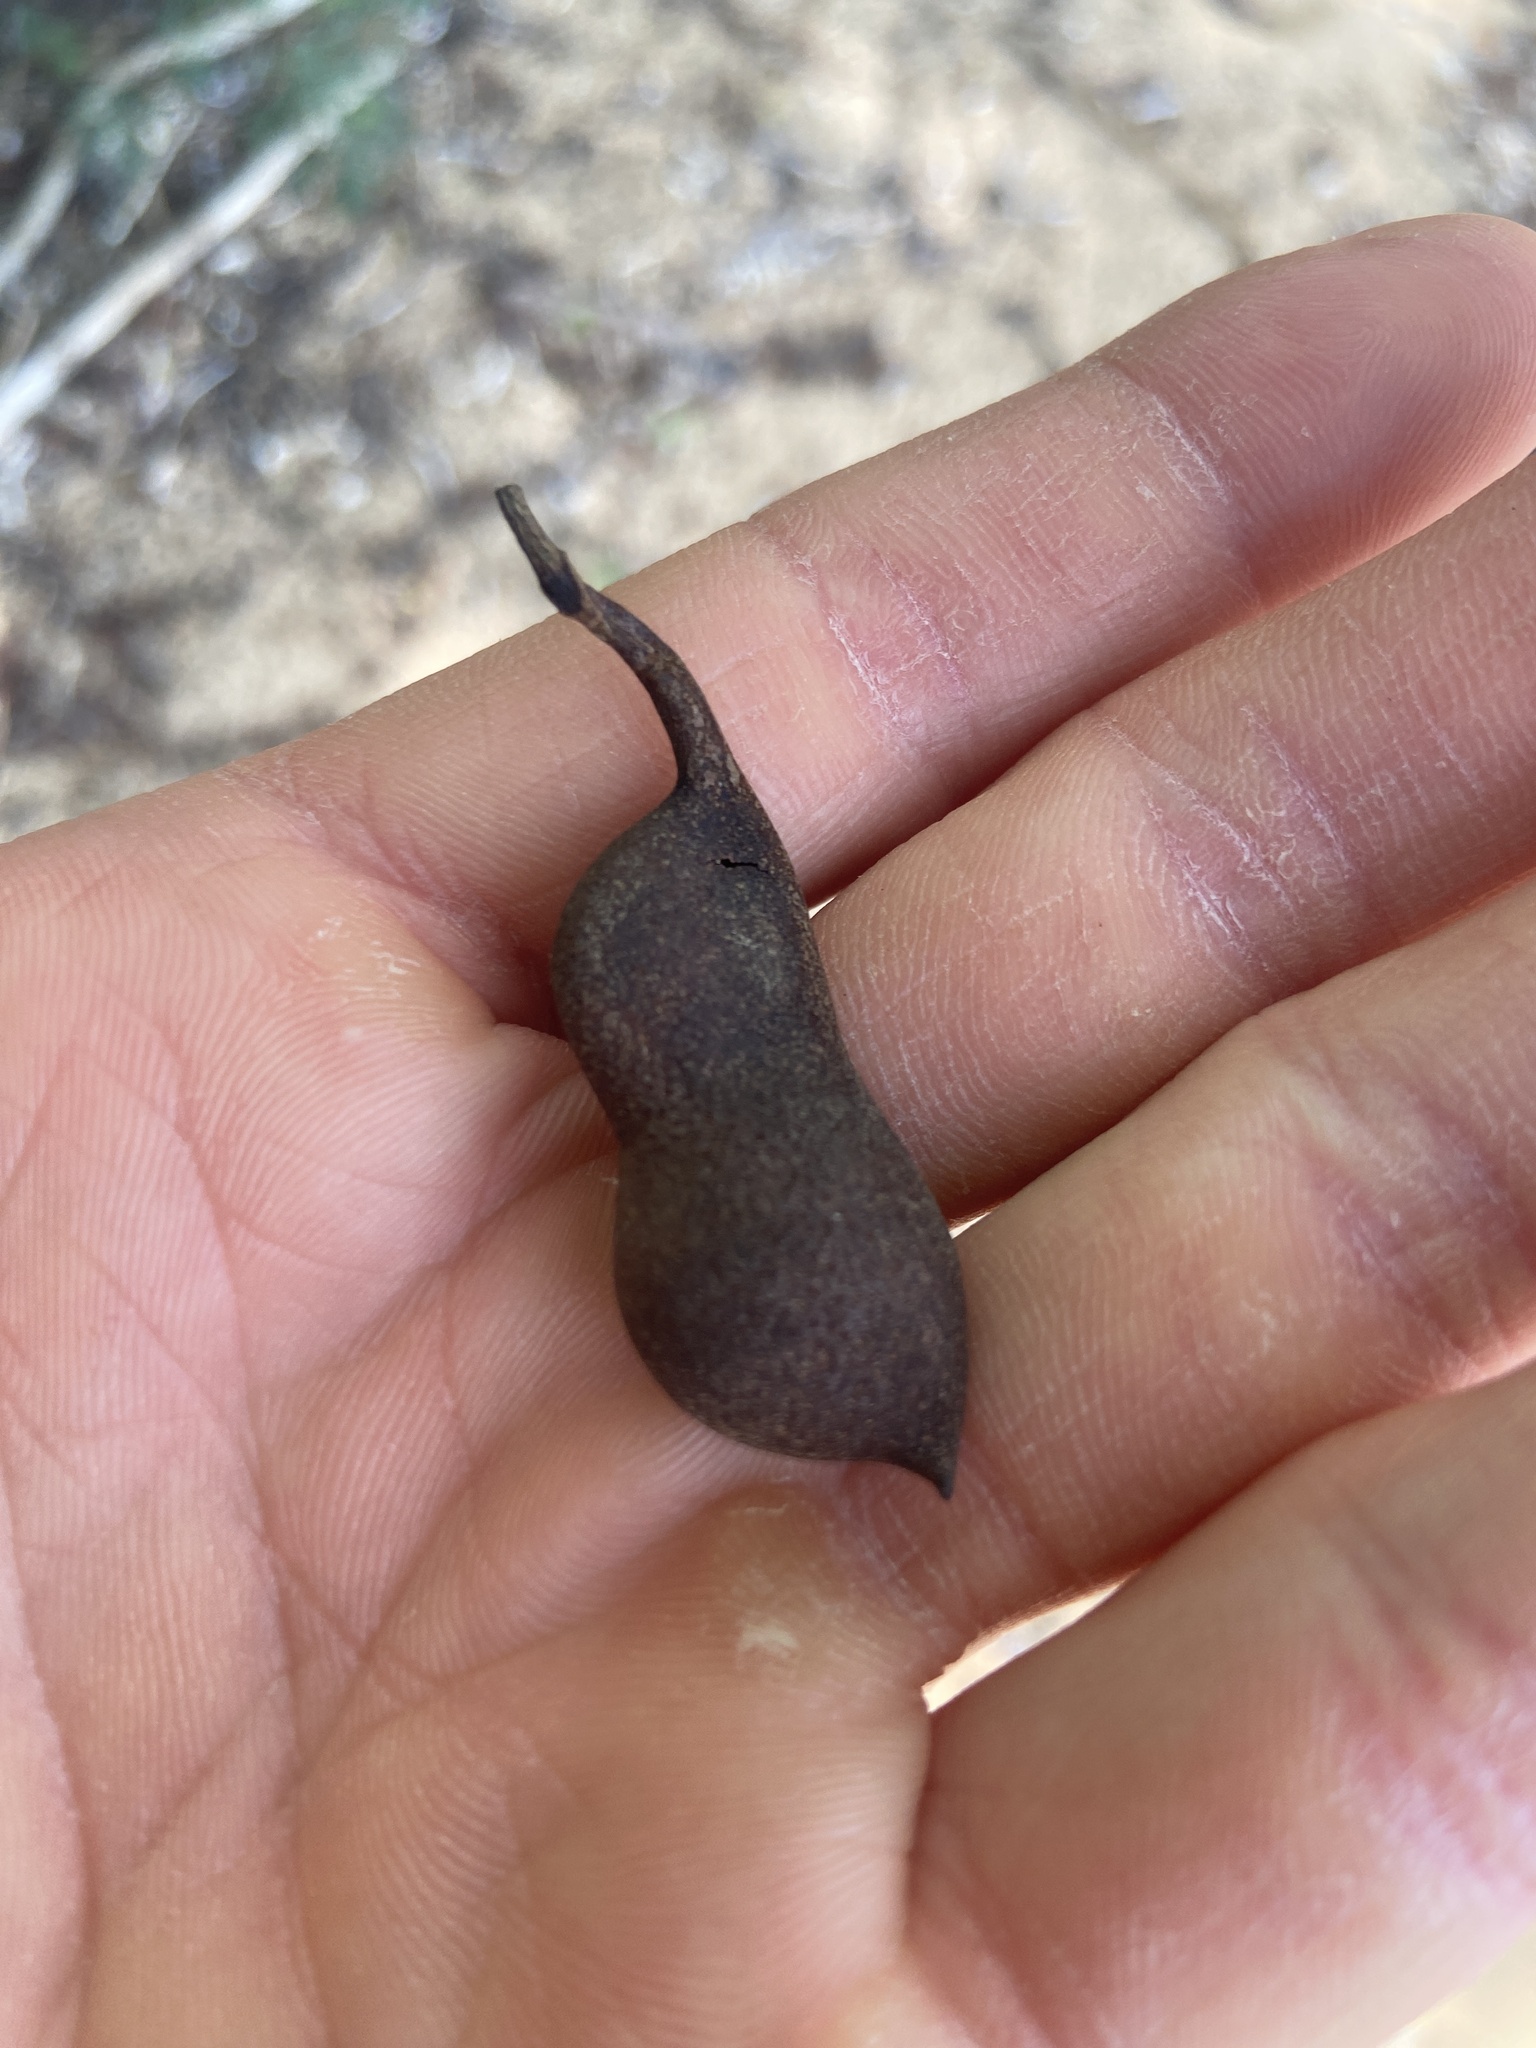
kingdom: Plantae
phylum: Tracheophyta
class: Magnoliopsida
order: Fabales
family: Fabaceae
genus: Tamarindus
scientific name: Tamarindus indica
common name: Tamarind
